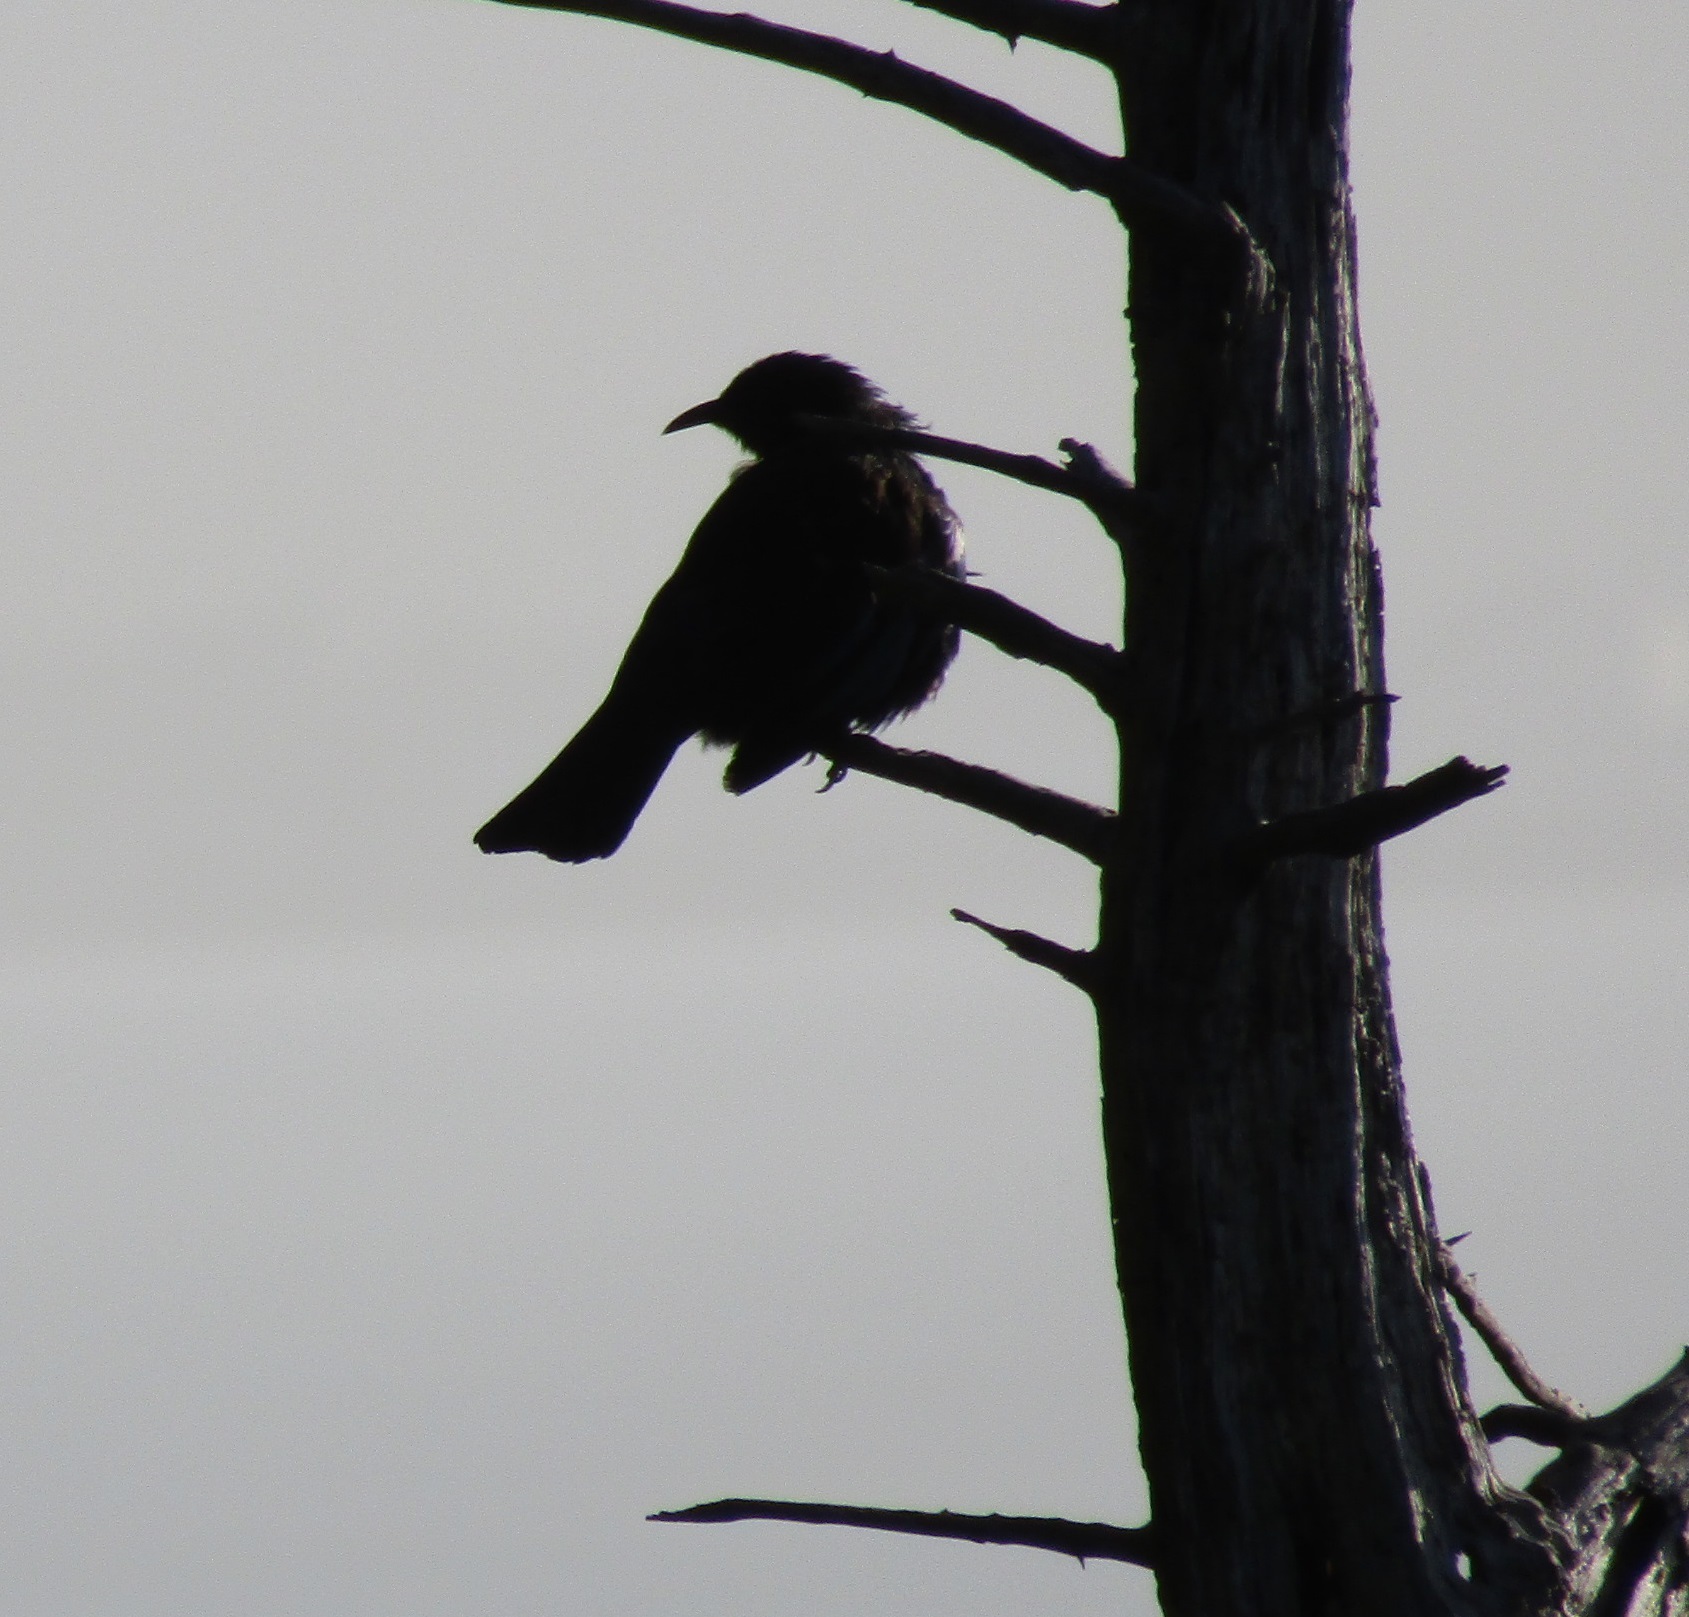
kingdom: Animalia
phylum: Chordata
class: Aves
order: Passeriformes
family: Meliphagidae
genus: Prosthemadera
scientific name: Prosthemadera novaeseelandiae
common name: Tui
